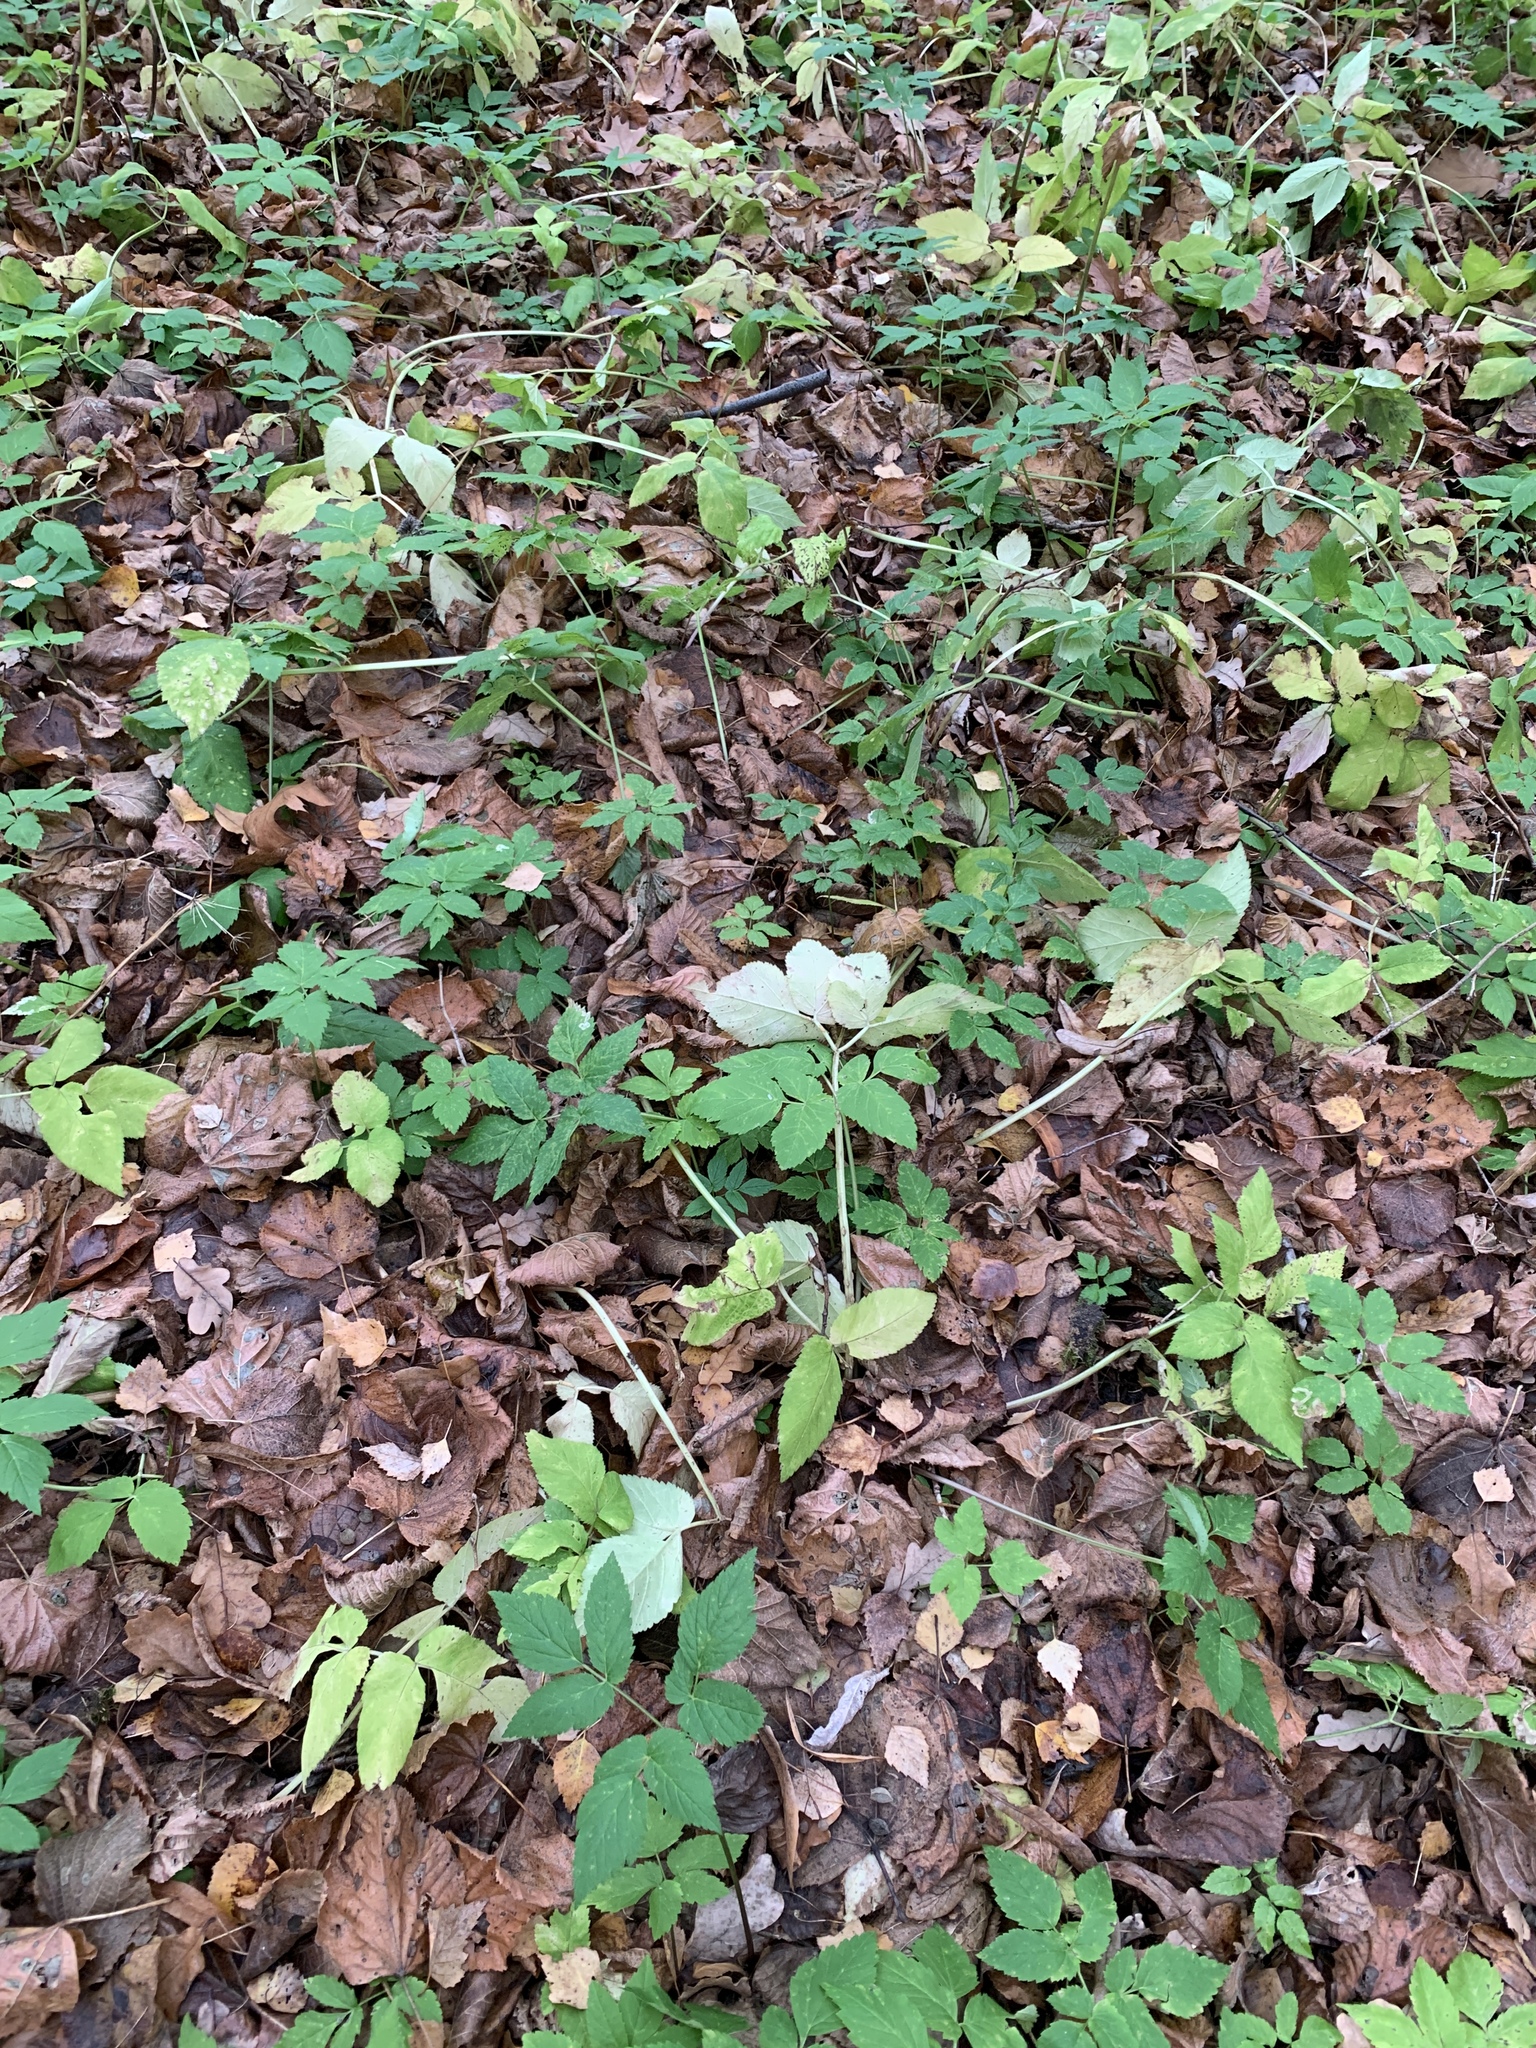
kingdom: Plantae
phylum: Tracheophyta
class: Magnoliopsida
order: Apiales
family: Apiaceae
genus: Aegopodium
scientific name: Aegopodium podagraria
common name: Ground-elder
